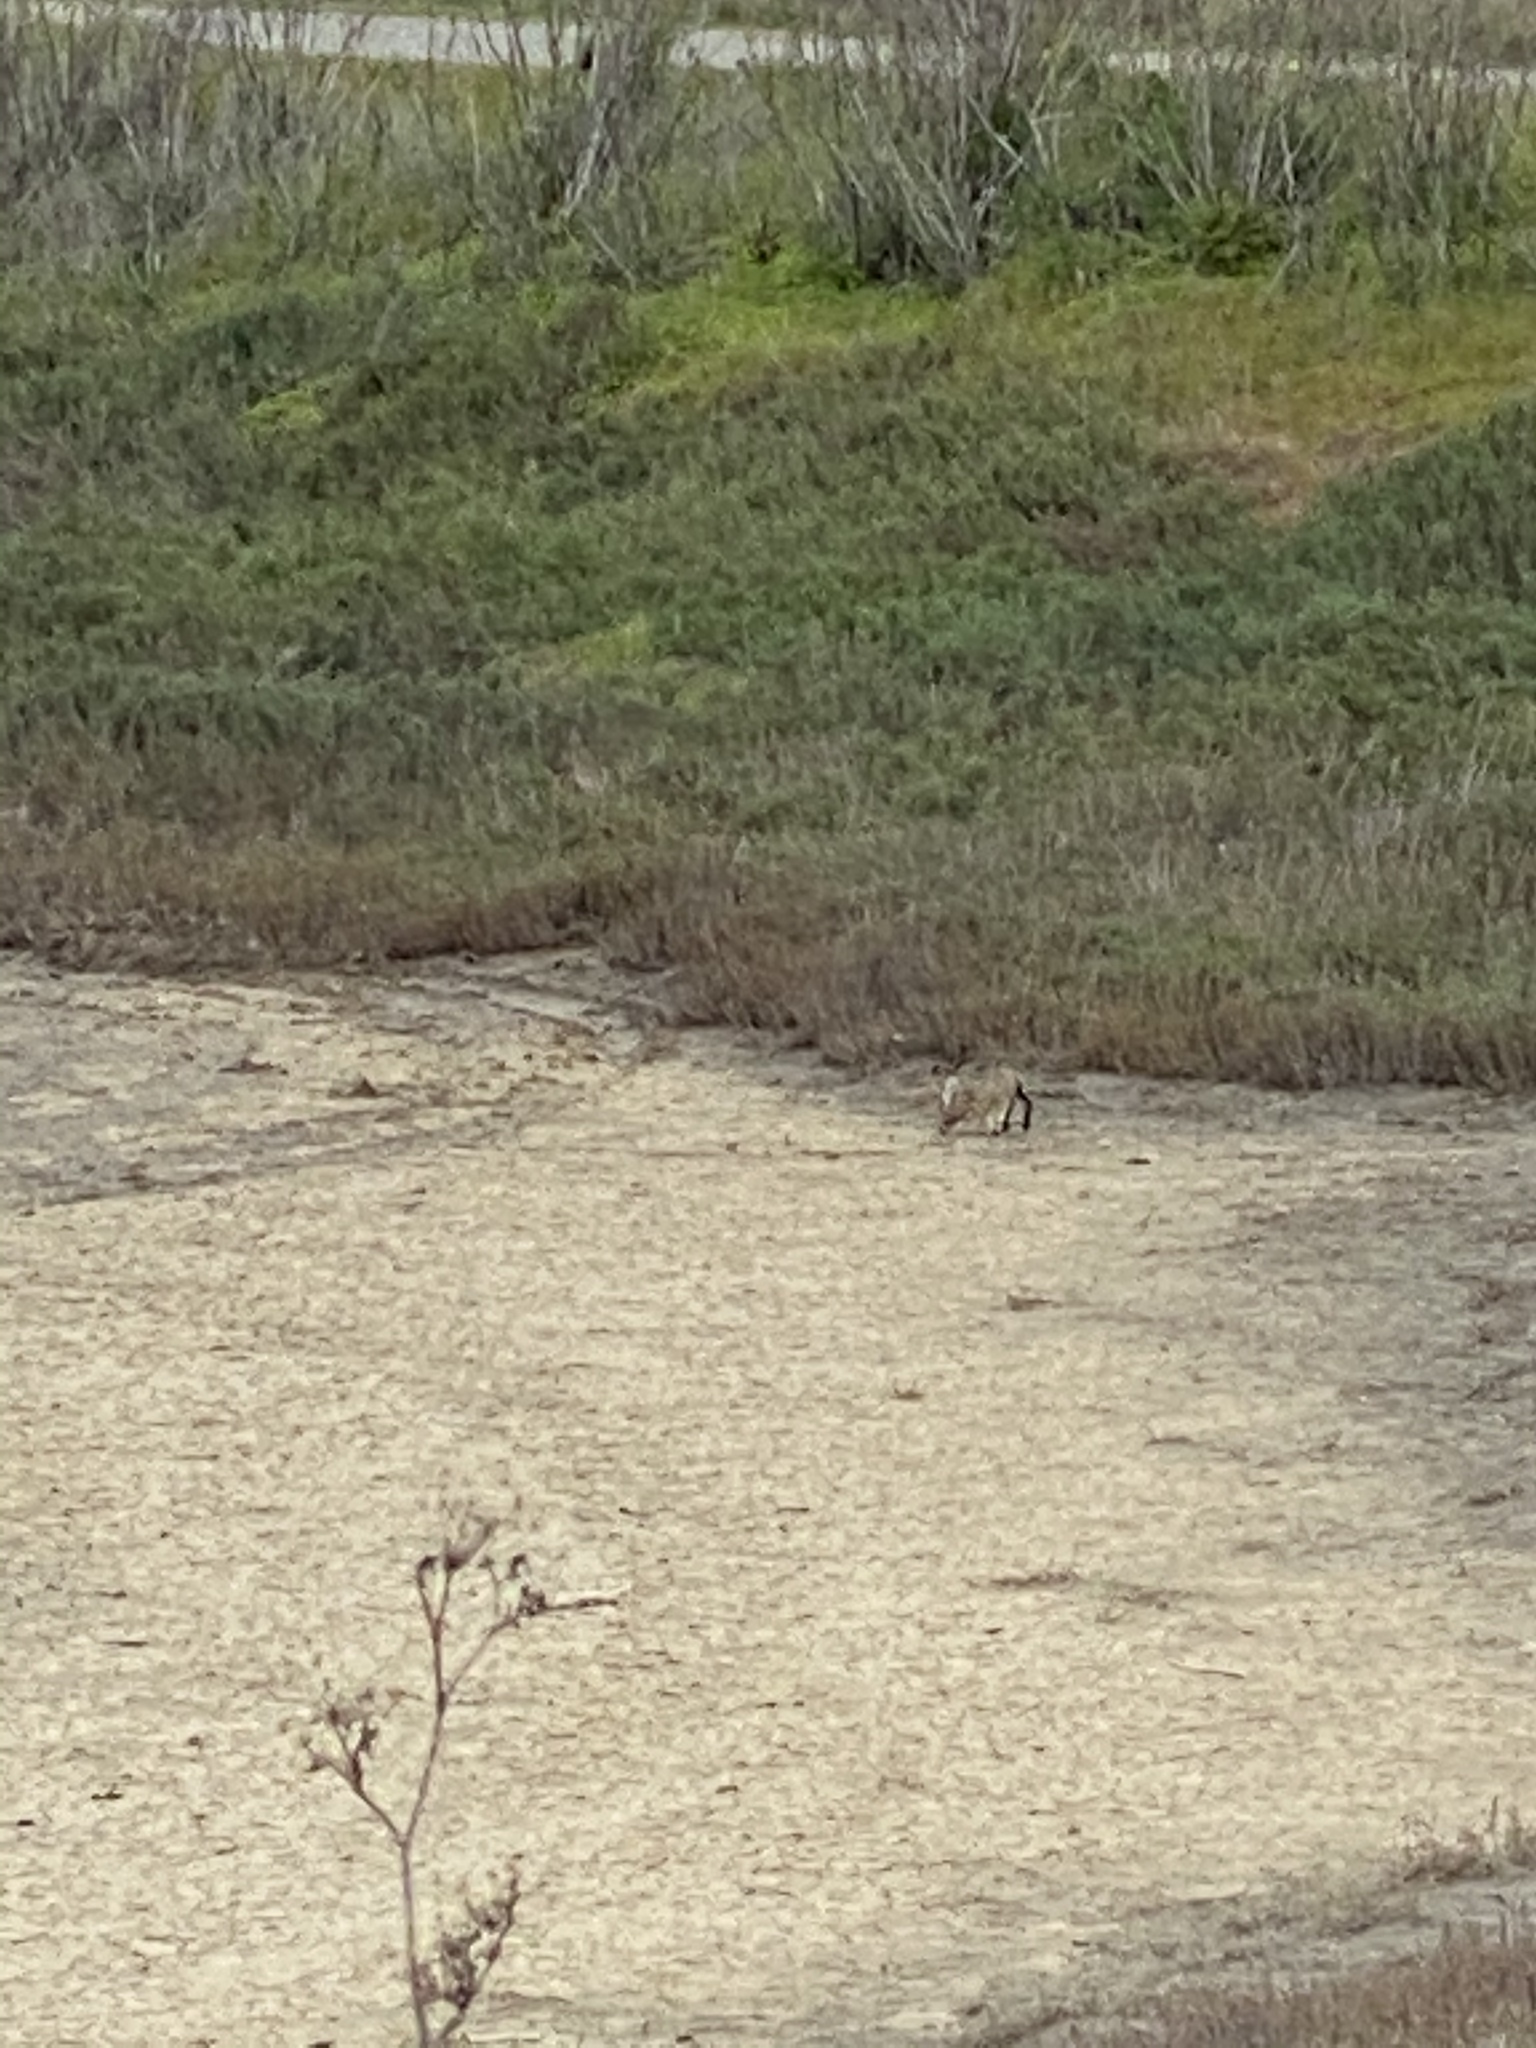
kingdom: Animalia
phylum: Chordata
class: Mammalia
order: Lagomorpha
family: Leporidae
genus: Lepus
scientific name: Lepus californicus
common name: Black-tailed jackrabbit
